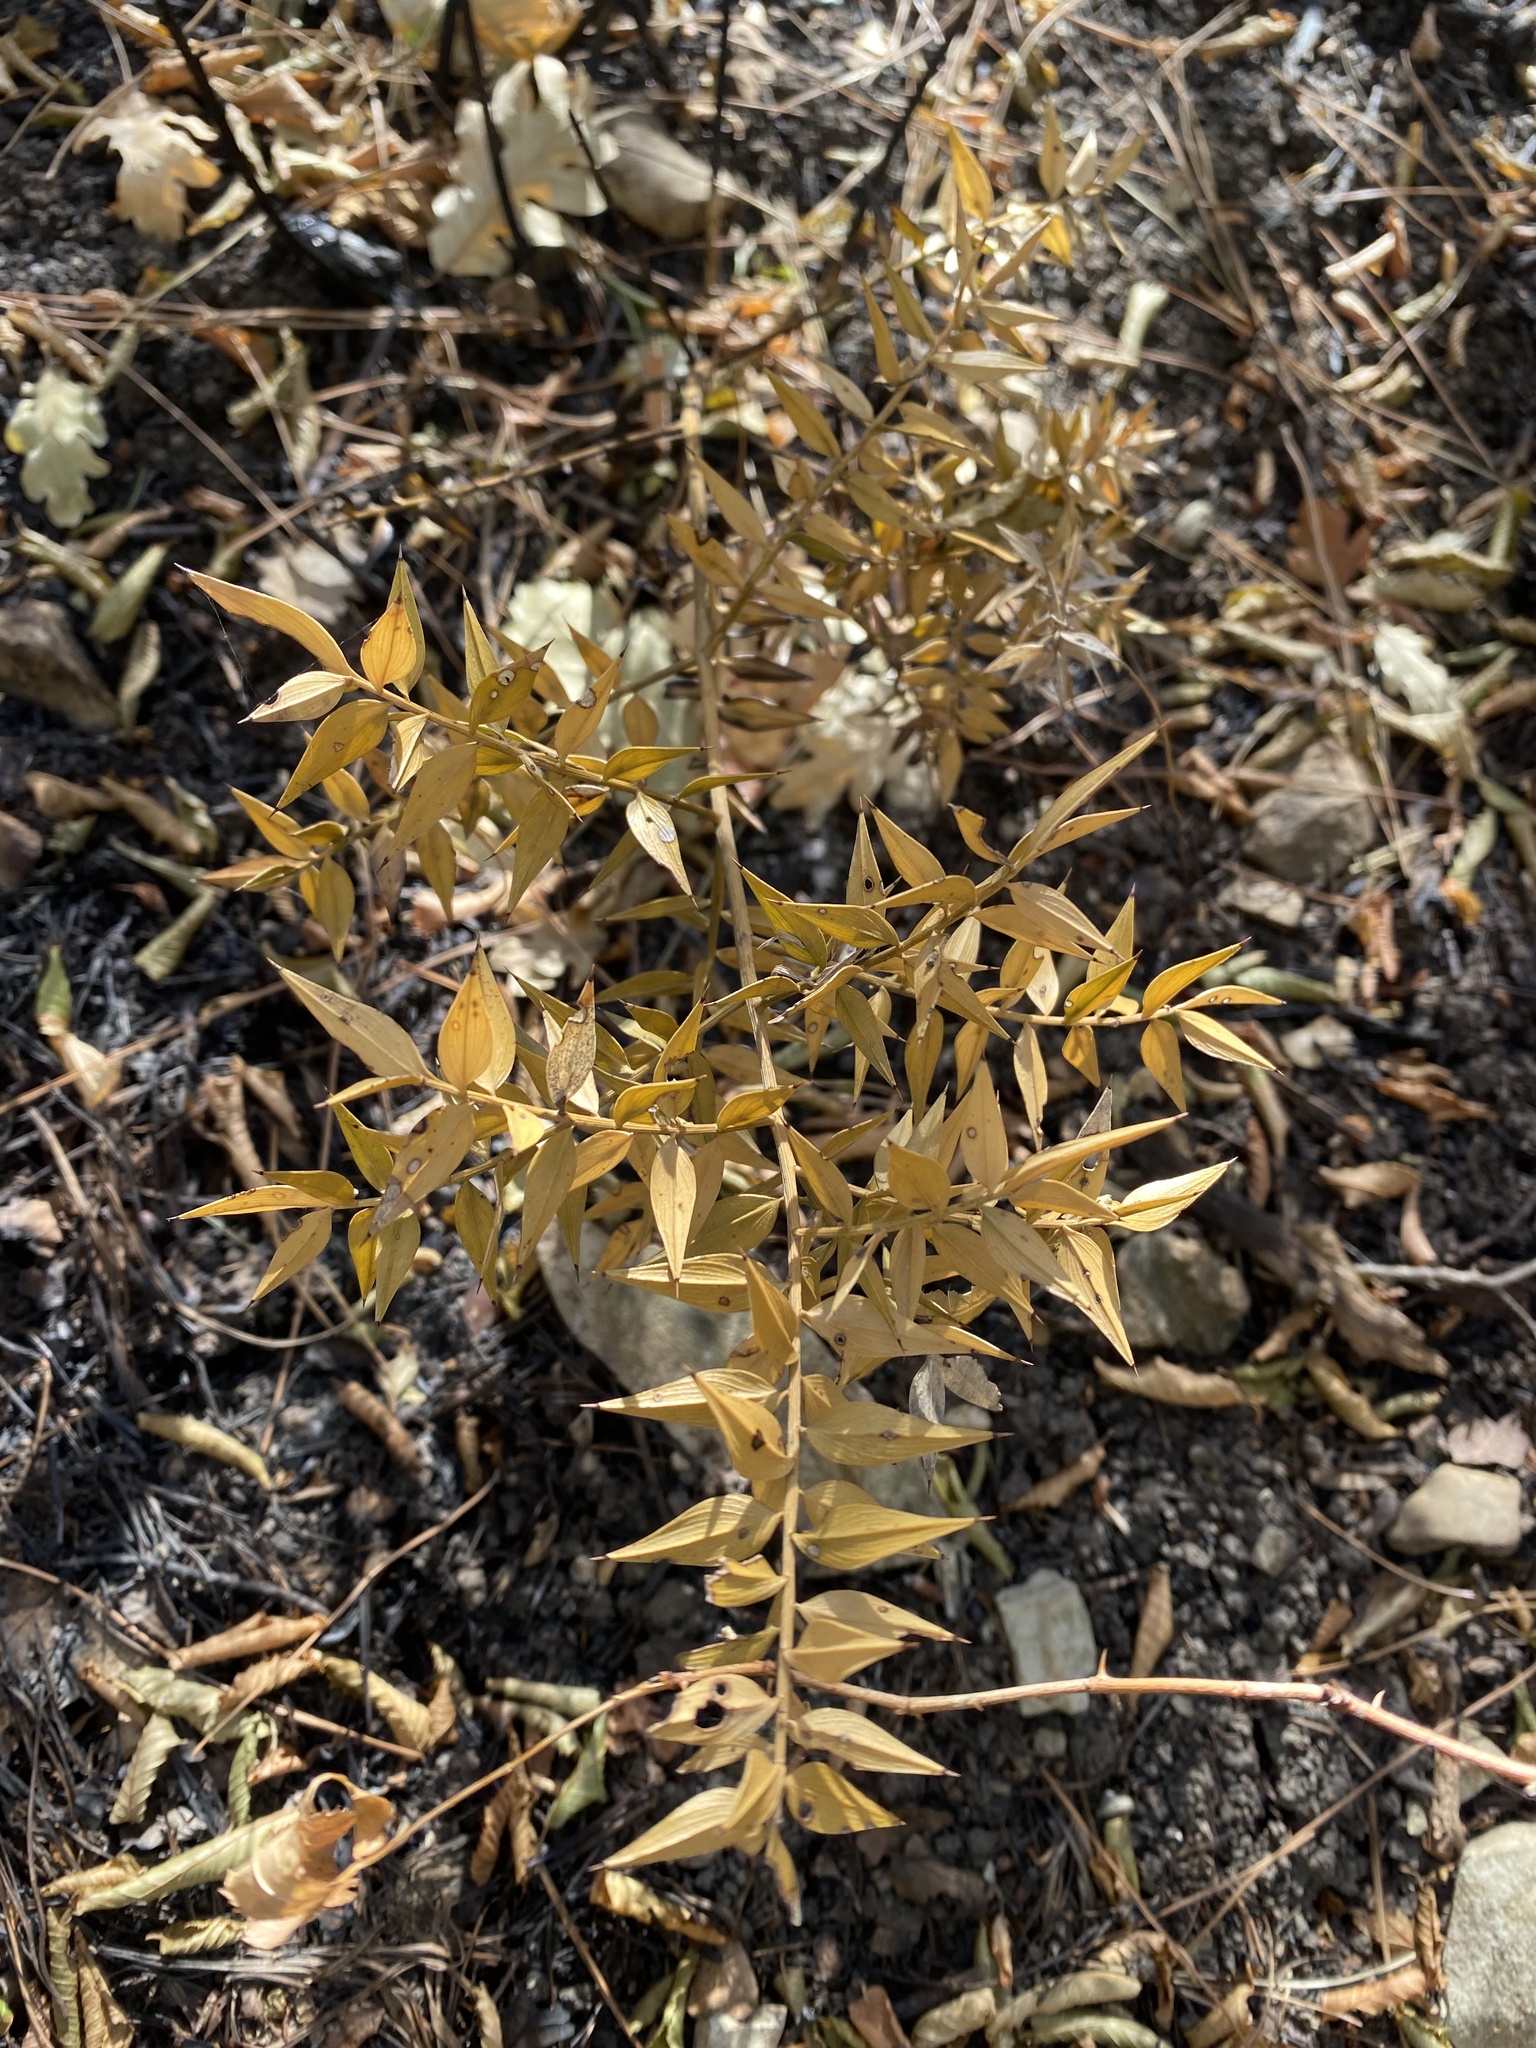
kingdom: Plantae
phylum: Tracheophyta
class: Liliopsida
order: Asparagales
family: Asparagaceae
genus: Ruscus
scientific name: Ruscus aculeatus
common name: Butcher's-broom
